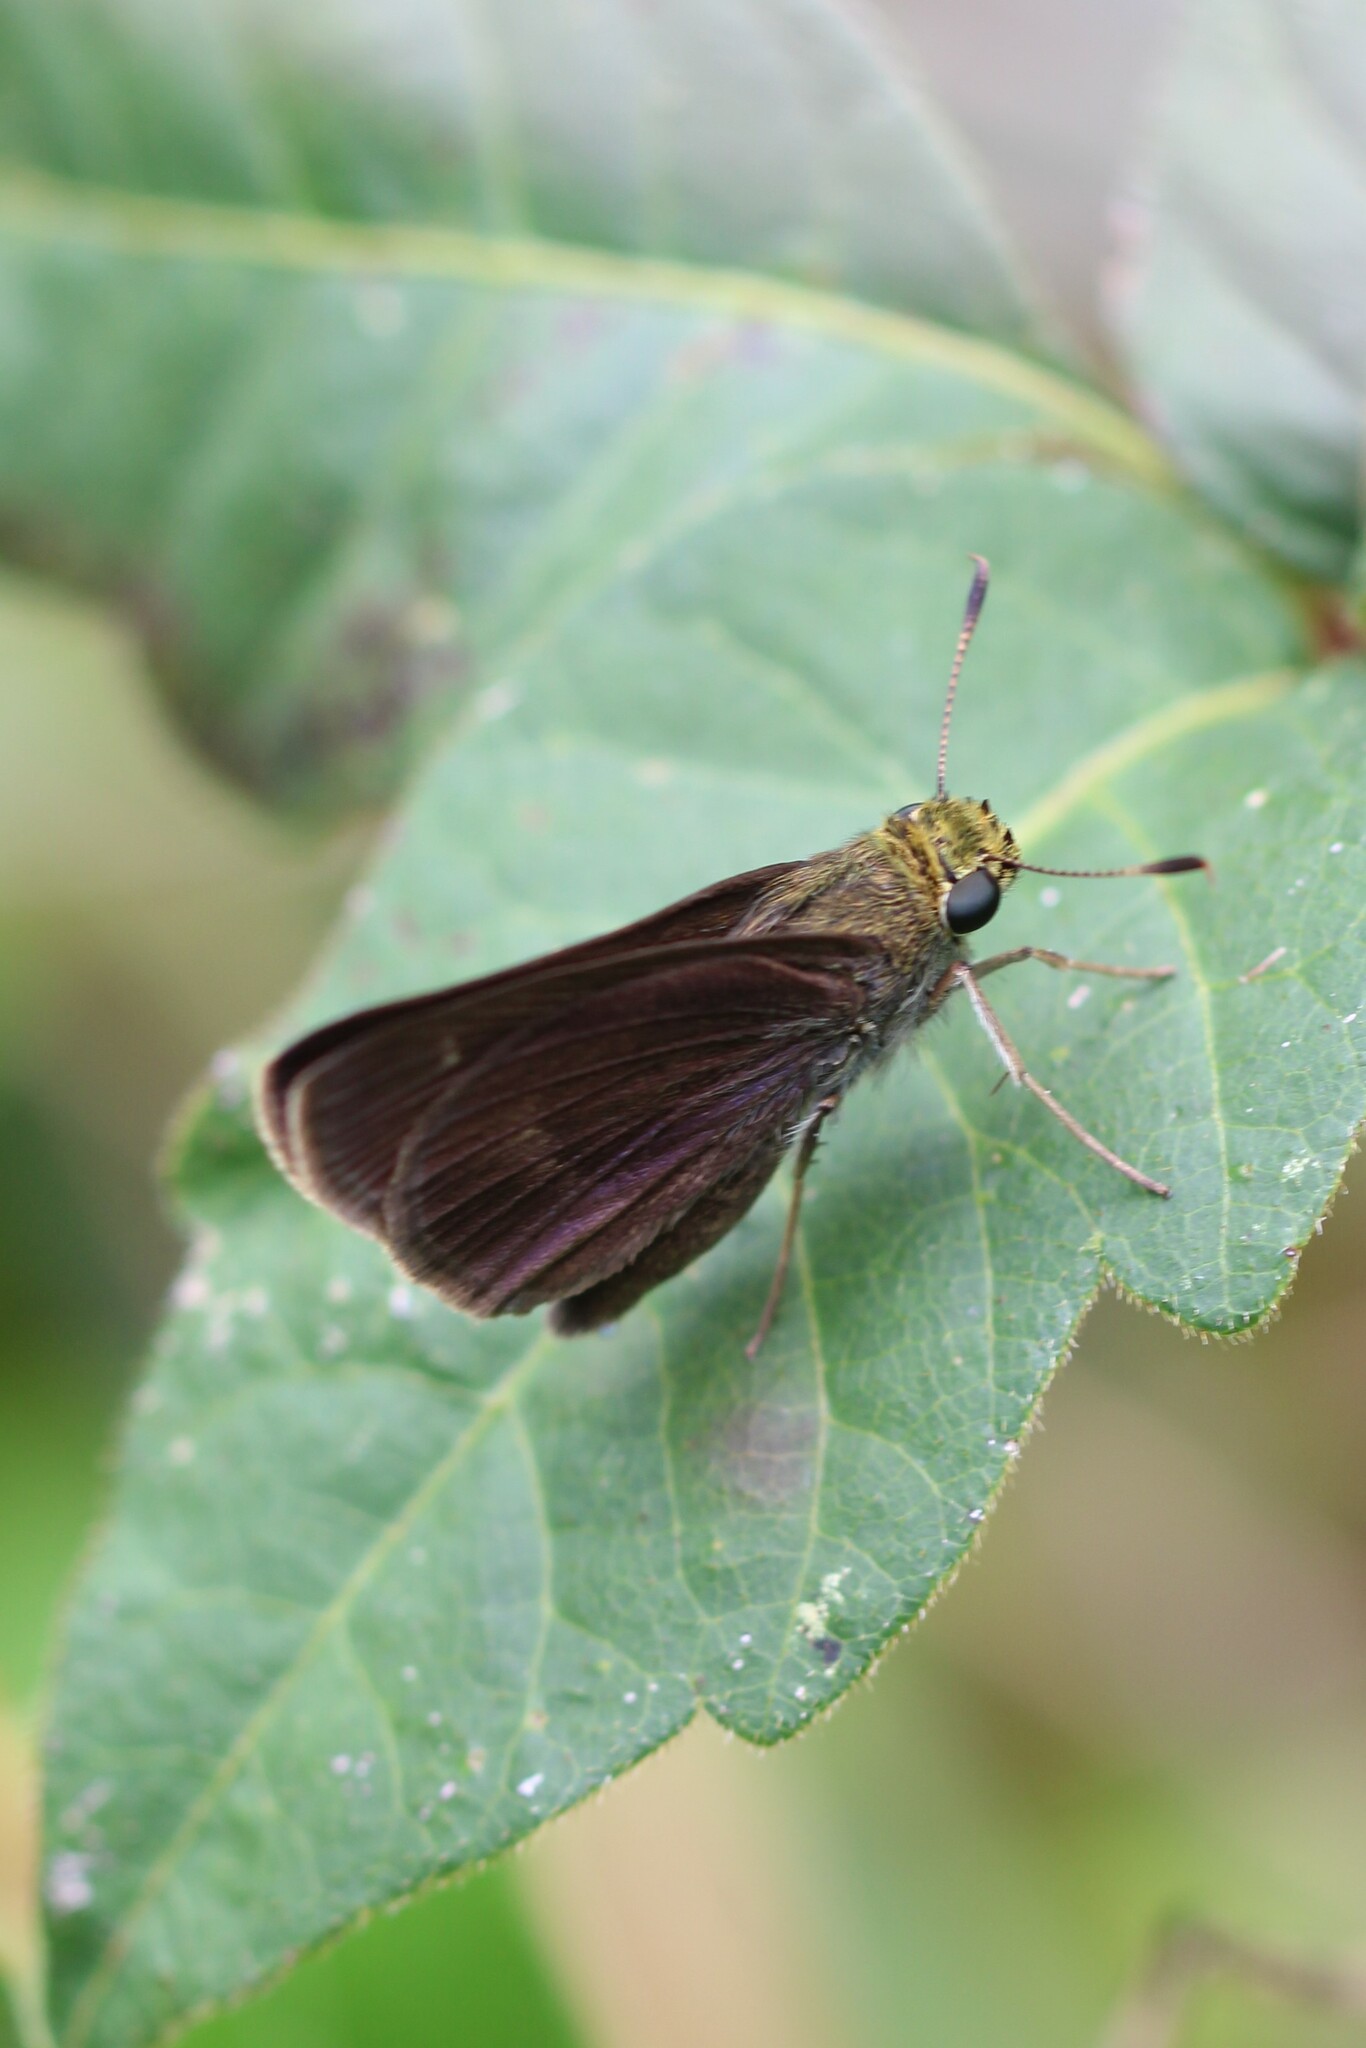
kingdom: Animalia
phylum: Arthropoda
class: Insecta
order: Lepidoptera
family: Hesperiidae
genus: Euphyes
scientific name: Euphyes vestris
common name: Dun skipper
